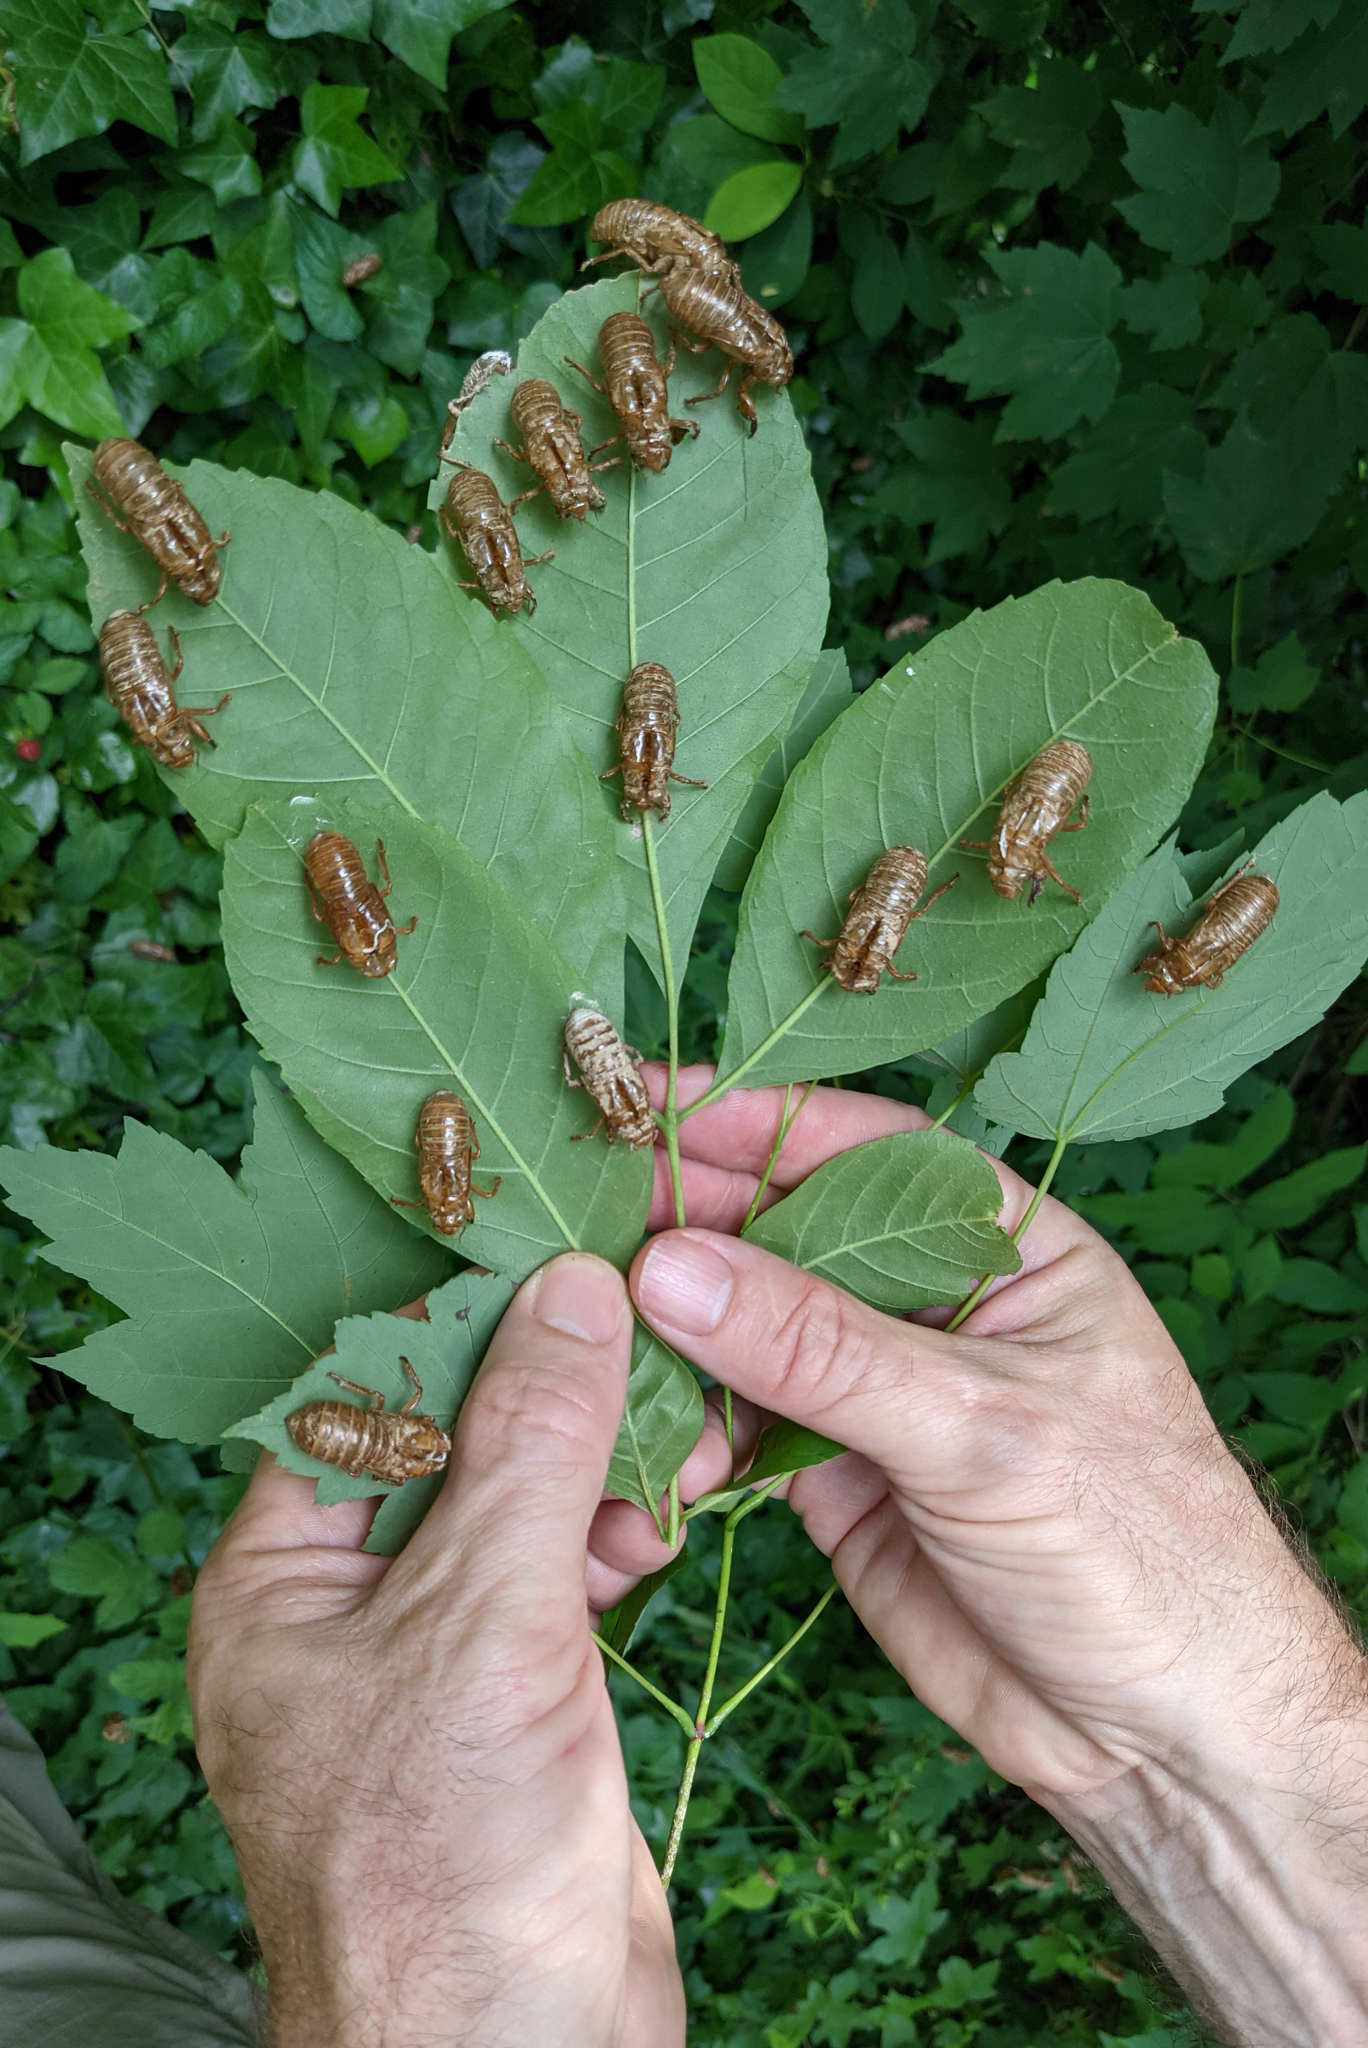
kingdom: Animalia
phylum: Arthropoda
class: Insecta
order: Hemiptera
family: Cicadidae
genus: Magicicada
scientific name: Magicicada septendecim
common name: Periodical cicada
